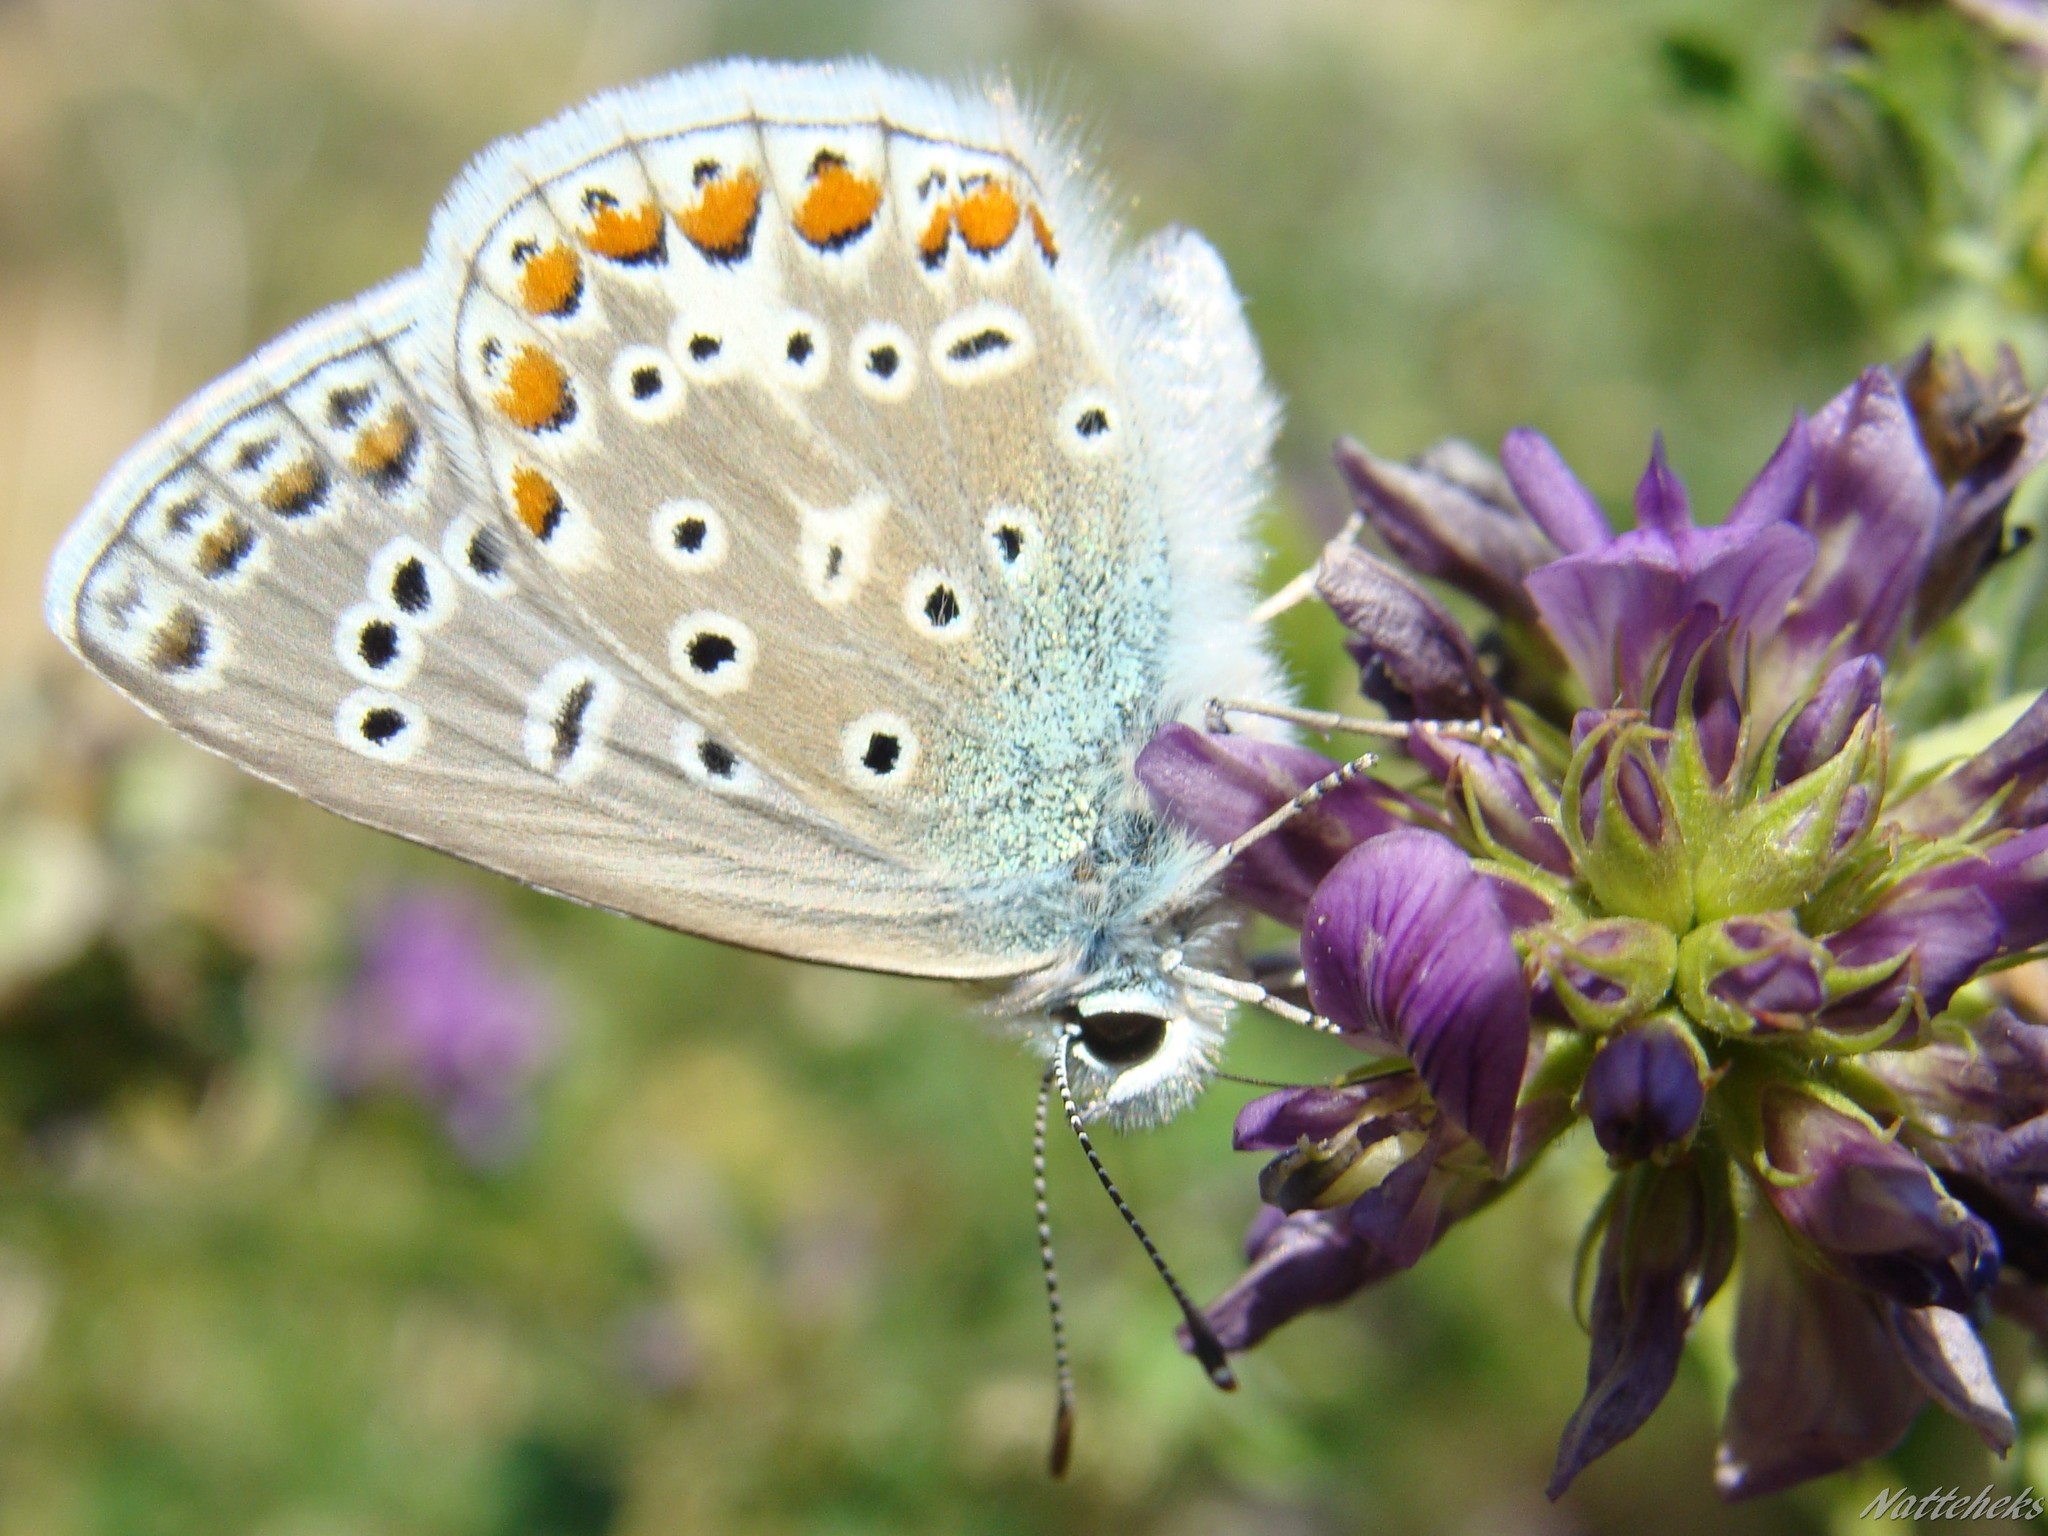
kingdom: Animalia
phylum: Arthropoda
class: Insecta
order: Lepidoptera
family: Lycaenidae
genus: Polyommatus
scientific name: Polyommatus icarus
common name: Common blue
